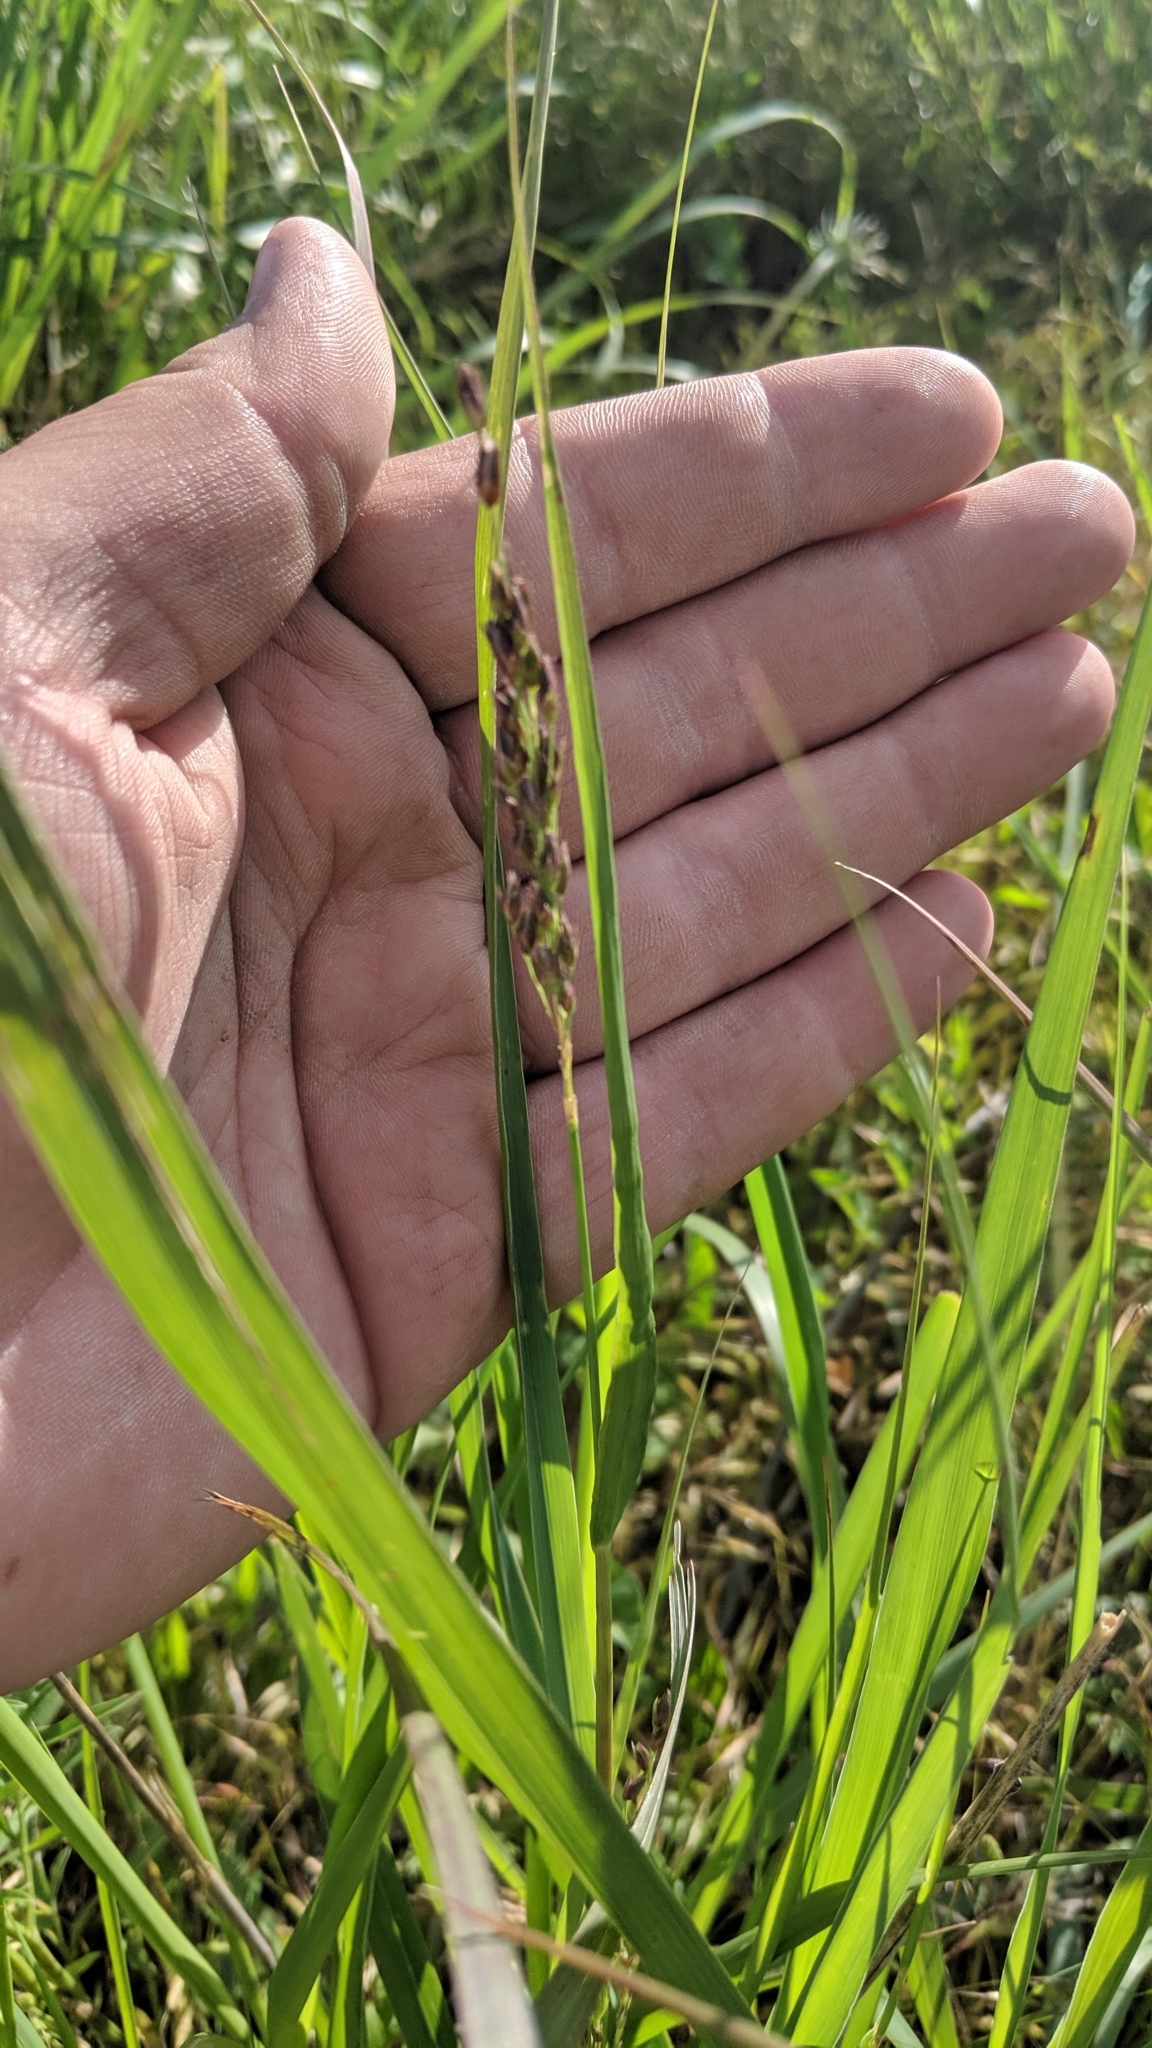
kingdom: Plantae
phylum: Tracheophyta
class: Liliopsida
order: Poales
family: Poaceae
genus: Panicum
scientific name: Panicum virgatum
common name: Switchgrass
